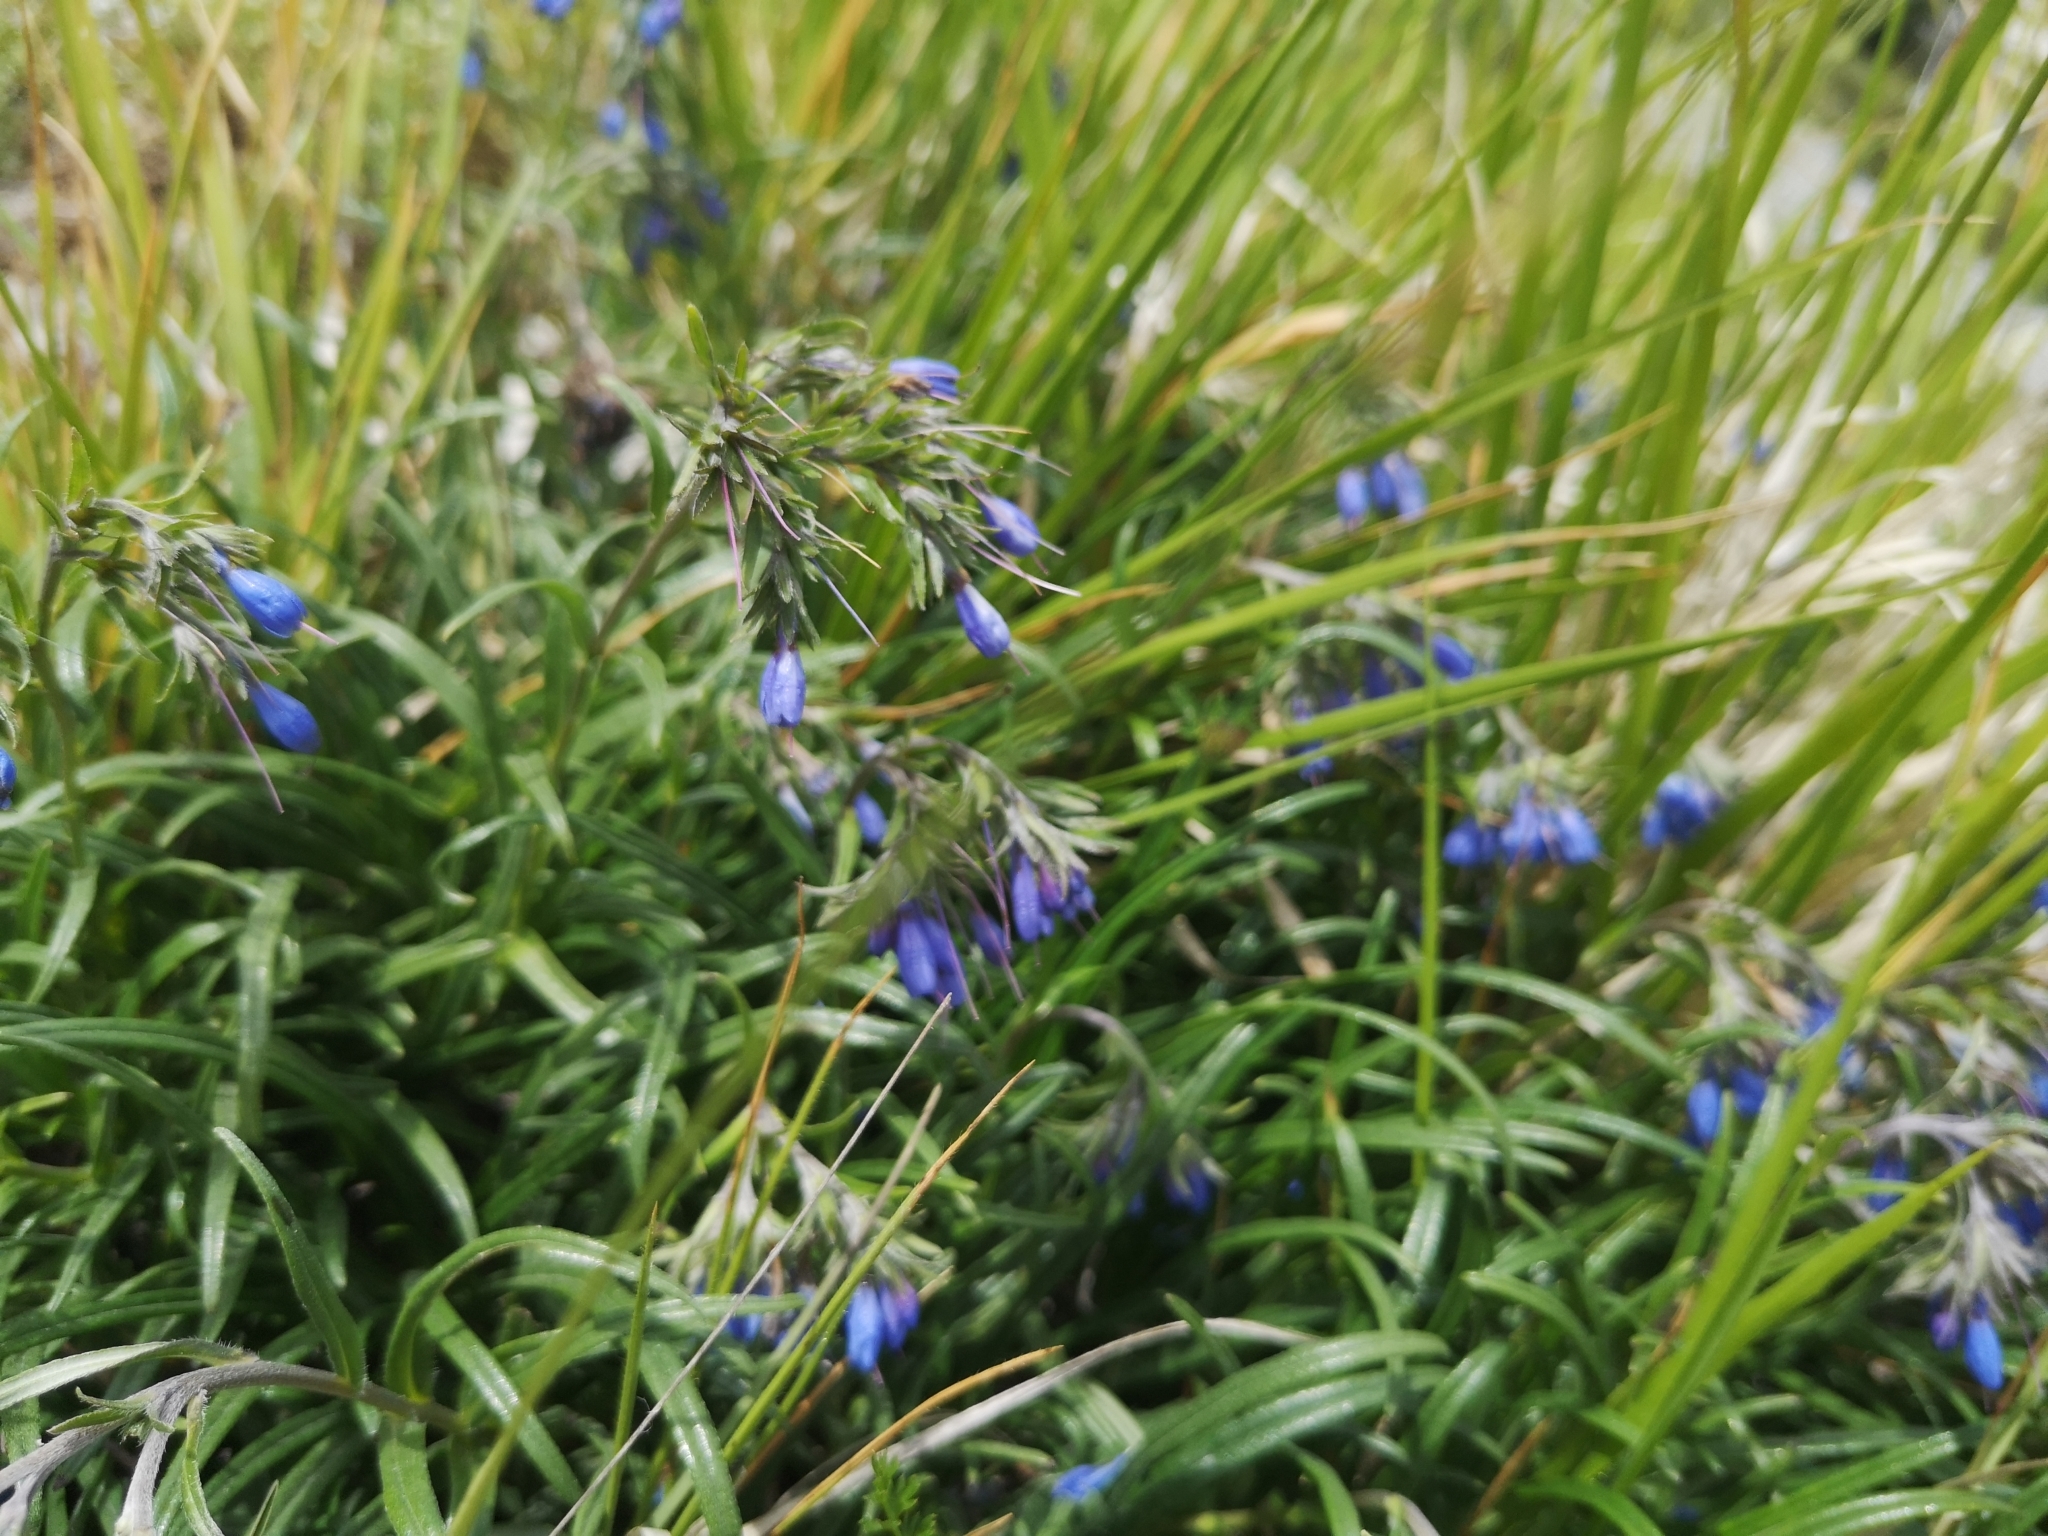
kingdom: Plantae
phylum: Tracheophyta
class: Magnoliopsida
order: Boraginales
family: Boraginaceae
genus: Moltkia
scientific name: Moltkia suffruticosa
